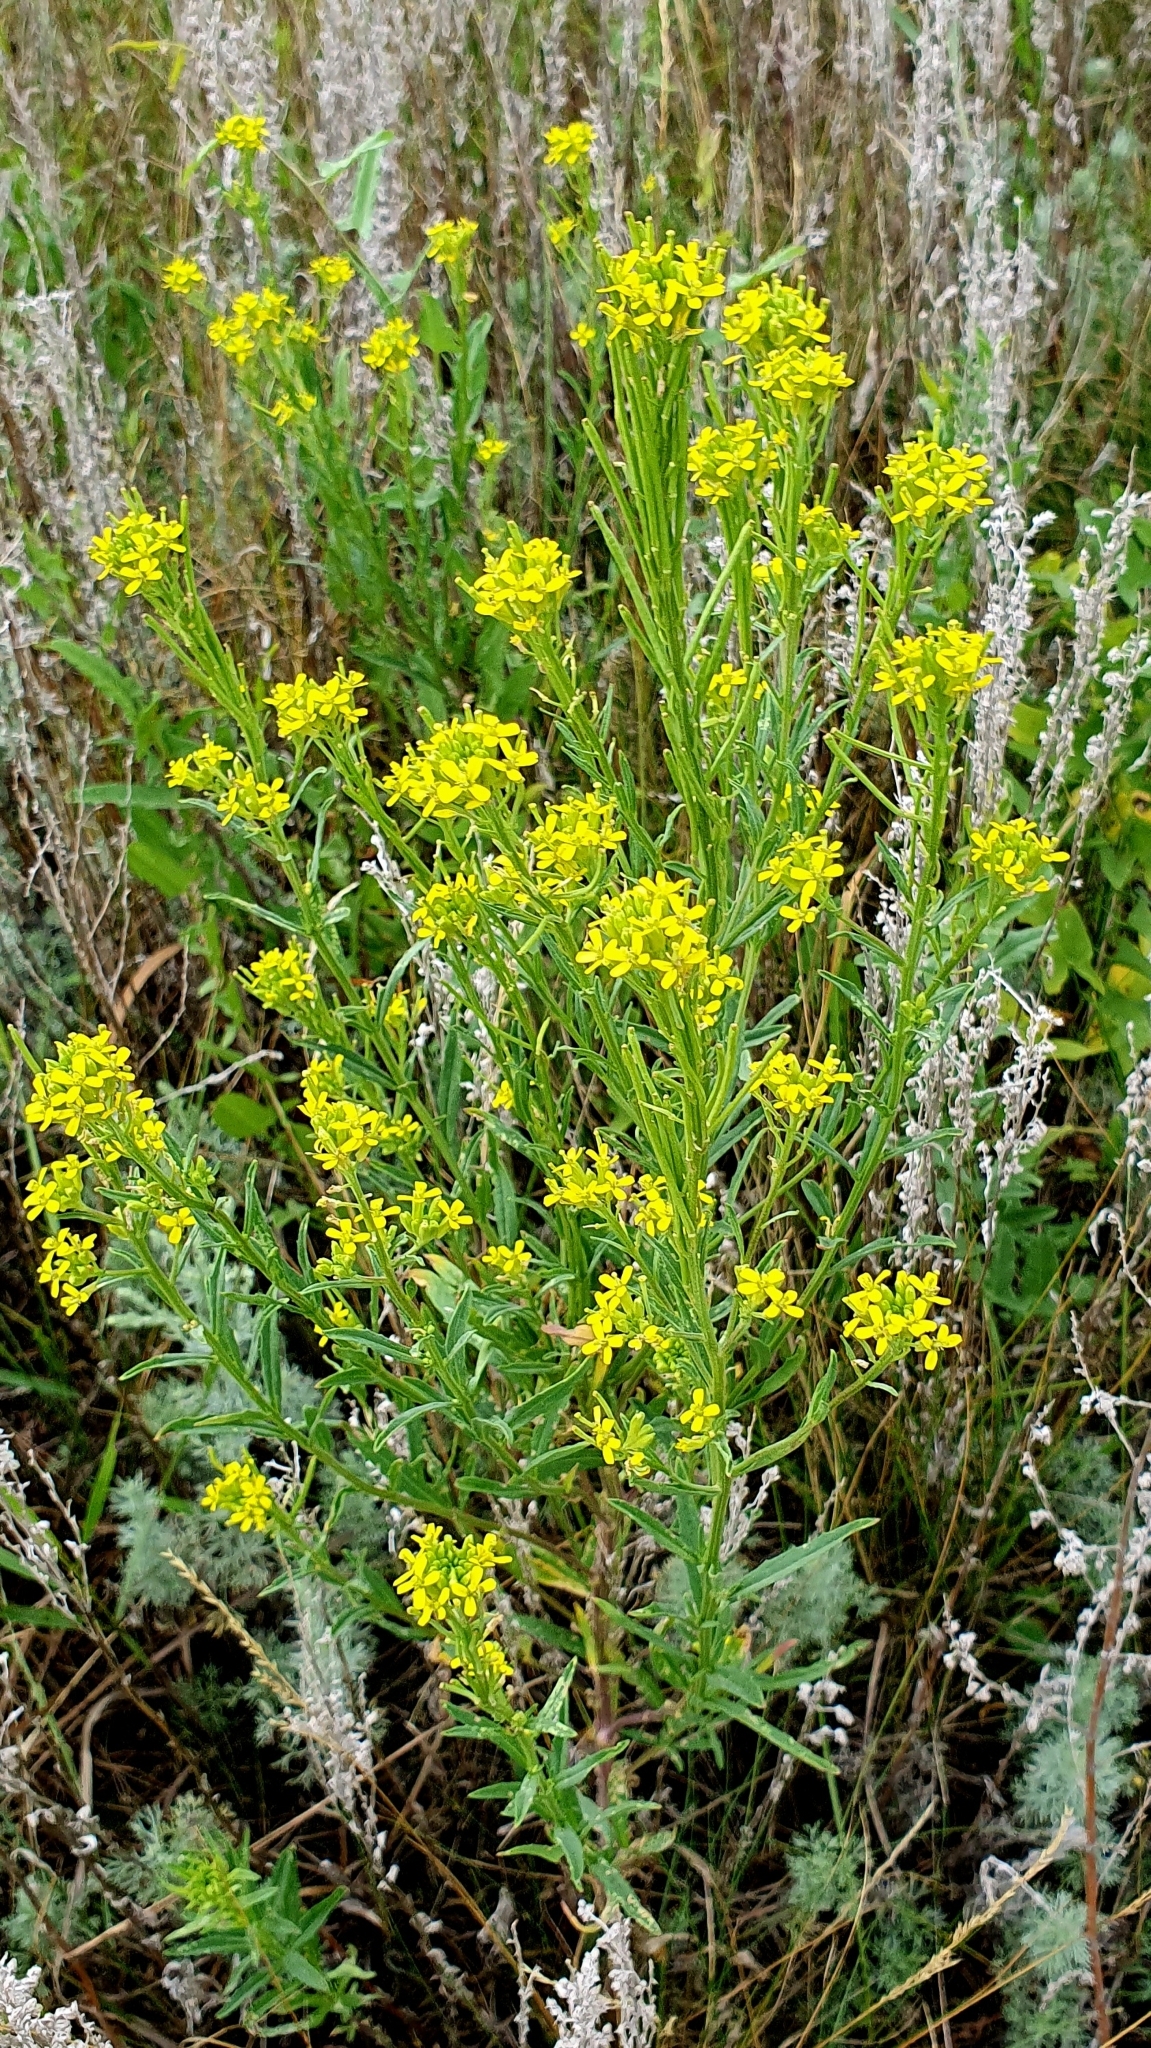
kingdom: Plantae
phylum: Tracheophyta
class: Magnoliopsida
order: Brassicales
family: Brassicaceae
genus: Erysimum
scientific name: Erysimum hieraciifolium
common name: European wallflower
